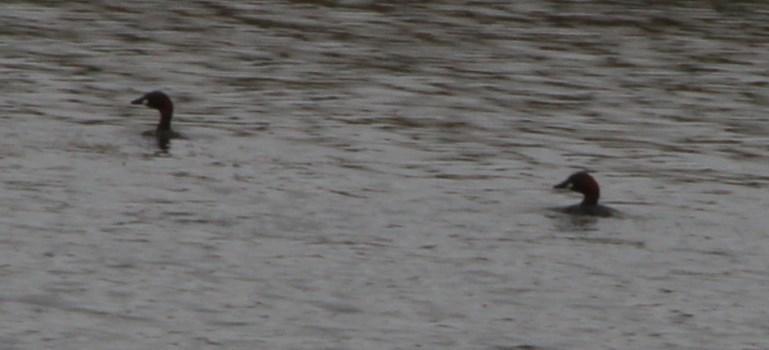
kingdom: Animalia
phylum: Chordata
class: Aves
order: Podicipediformes
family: Podicipedidae
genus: Tachybaptus
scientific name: Tachybaptus ruficollis
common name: Little grebe
